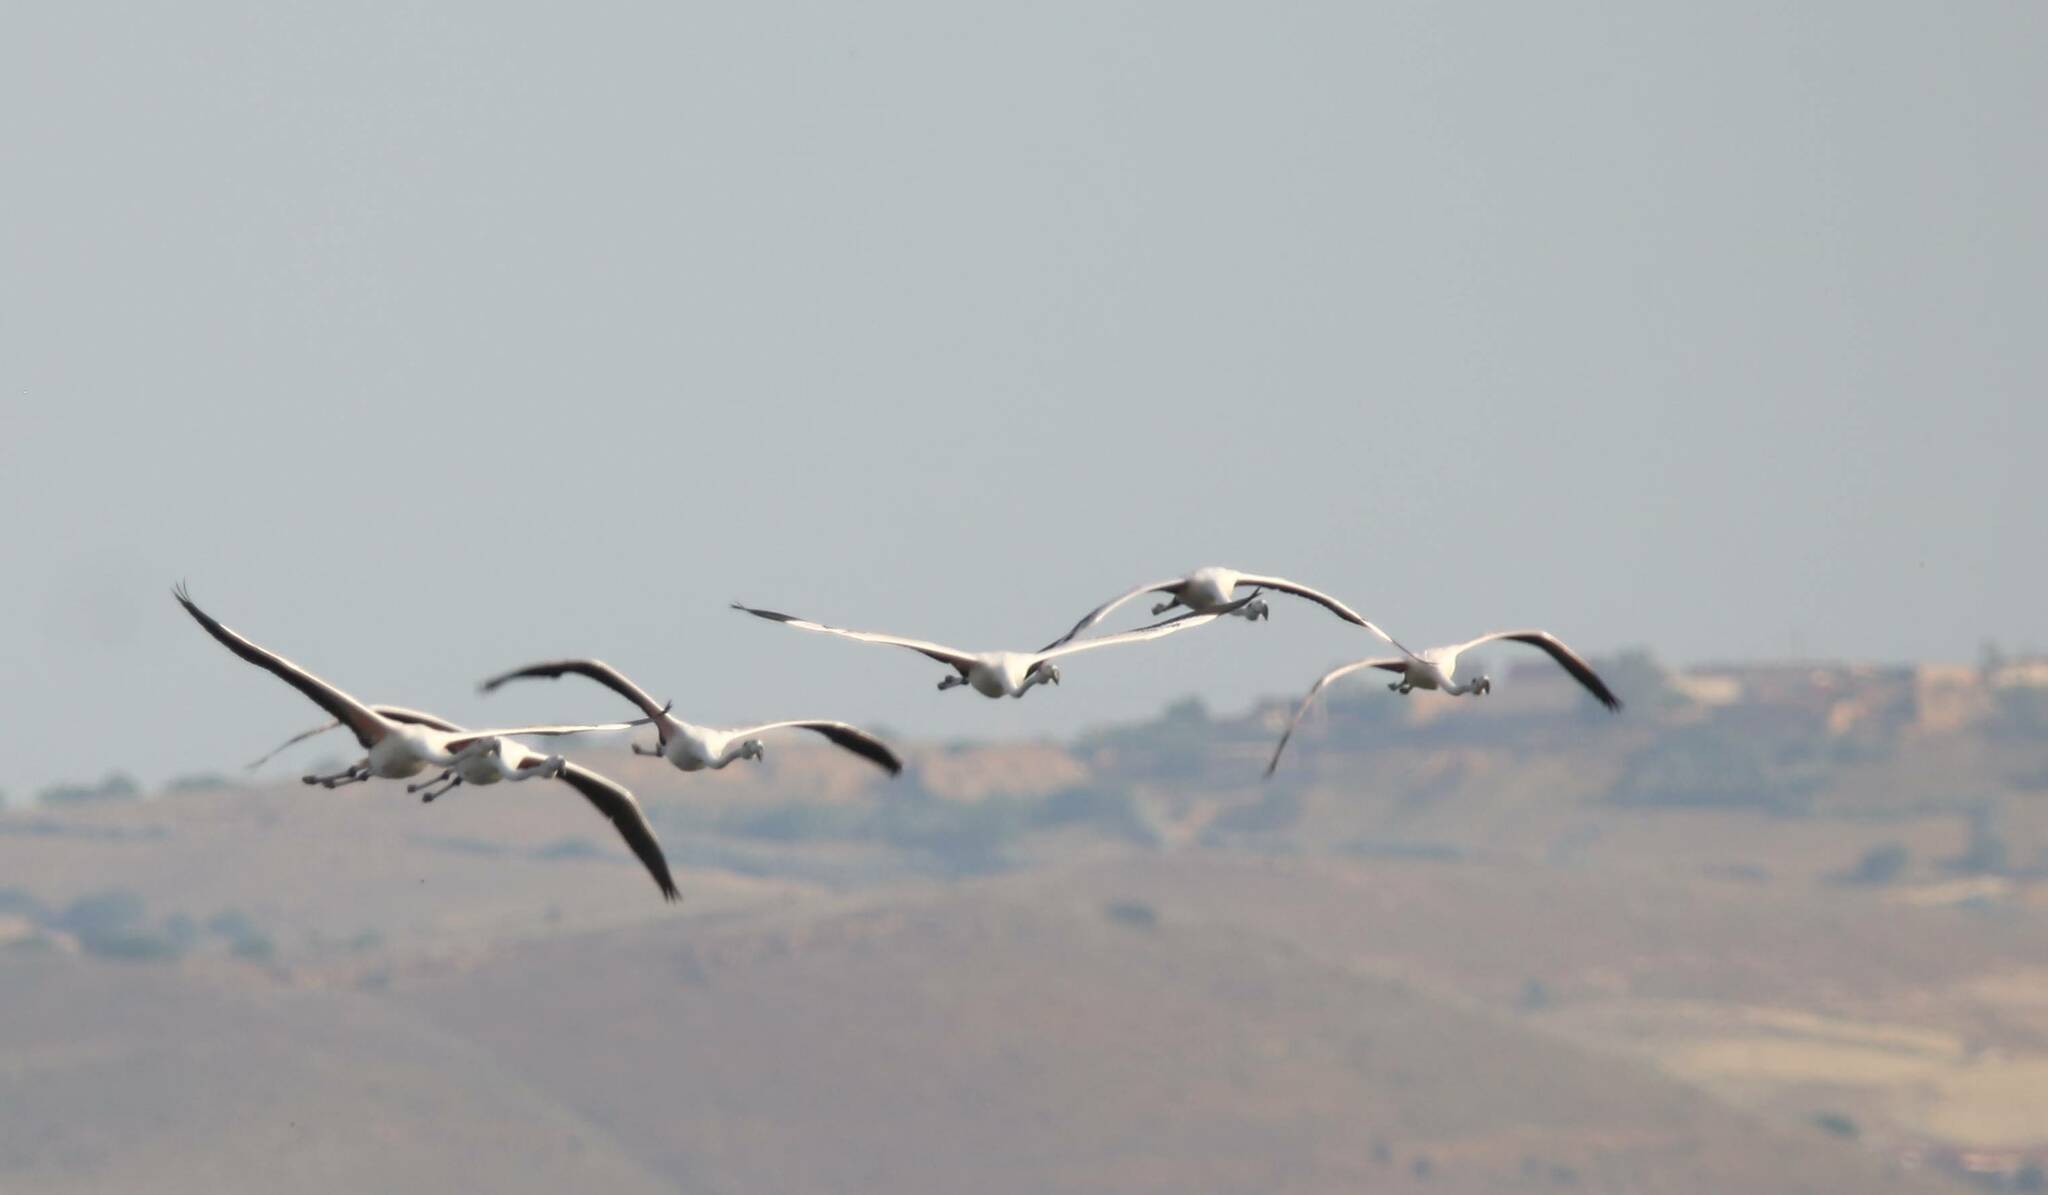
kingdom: Animalia
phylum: Chordata
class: Aves
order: Phoenicopteriformes
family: Phoenicopteridae
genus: Phoenicopterus
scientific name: Phoenicopterus roseus
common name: Greater flamingo
